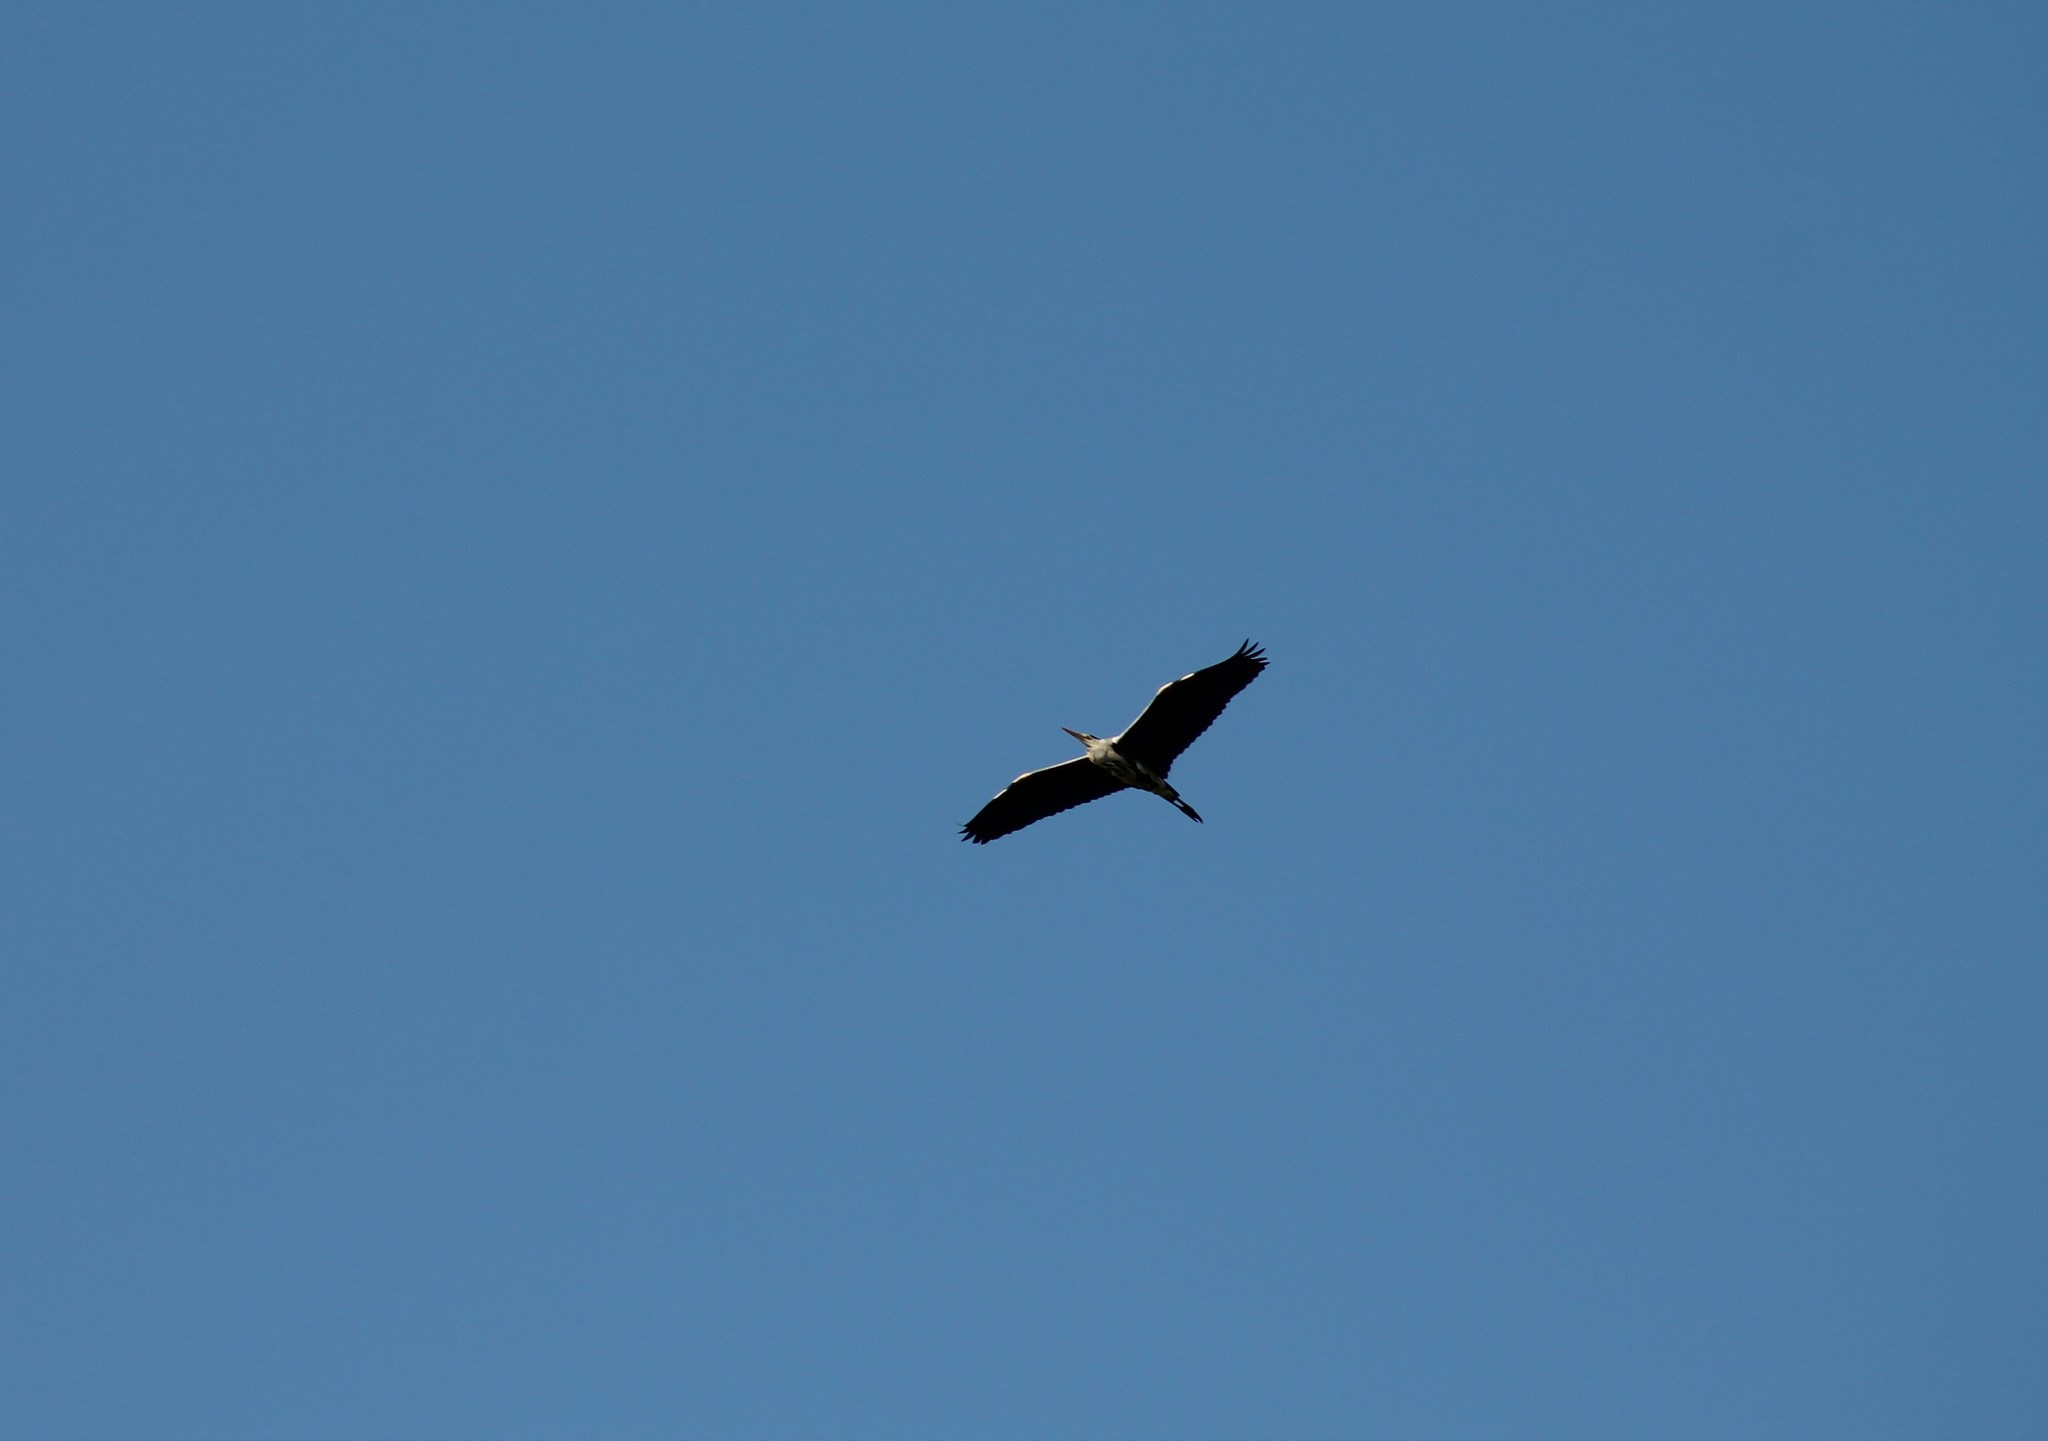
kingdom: Animalia
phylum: Chordata
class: Aves
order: Pelecaniformes
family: Ardeidae
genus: Ardea
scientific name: Ardea cinerea
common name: Grey heron
